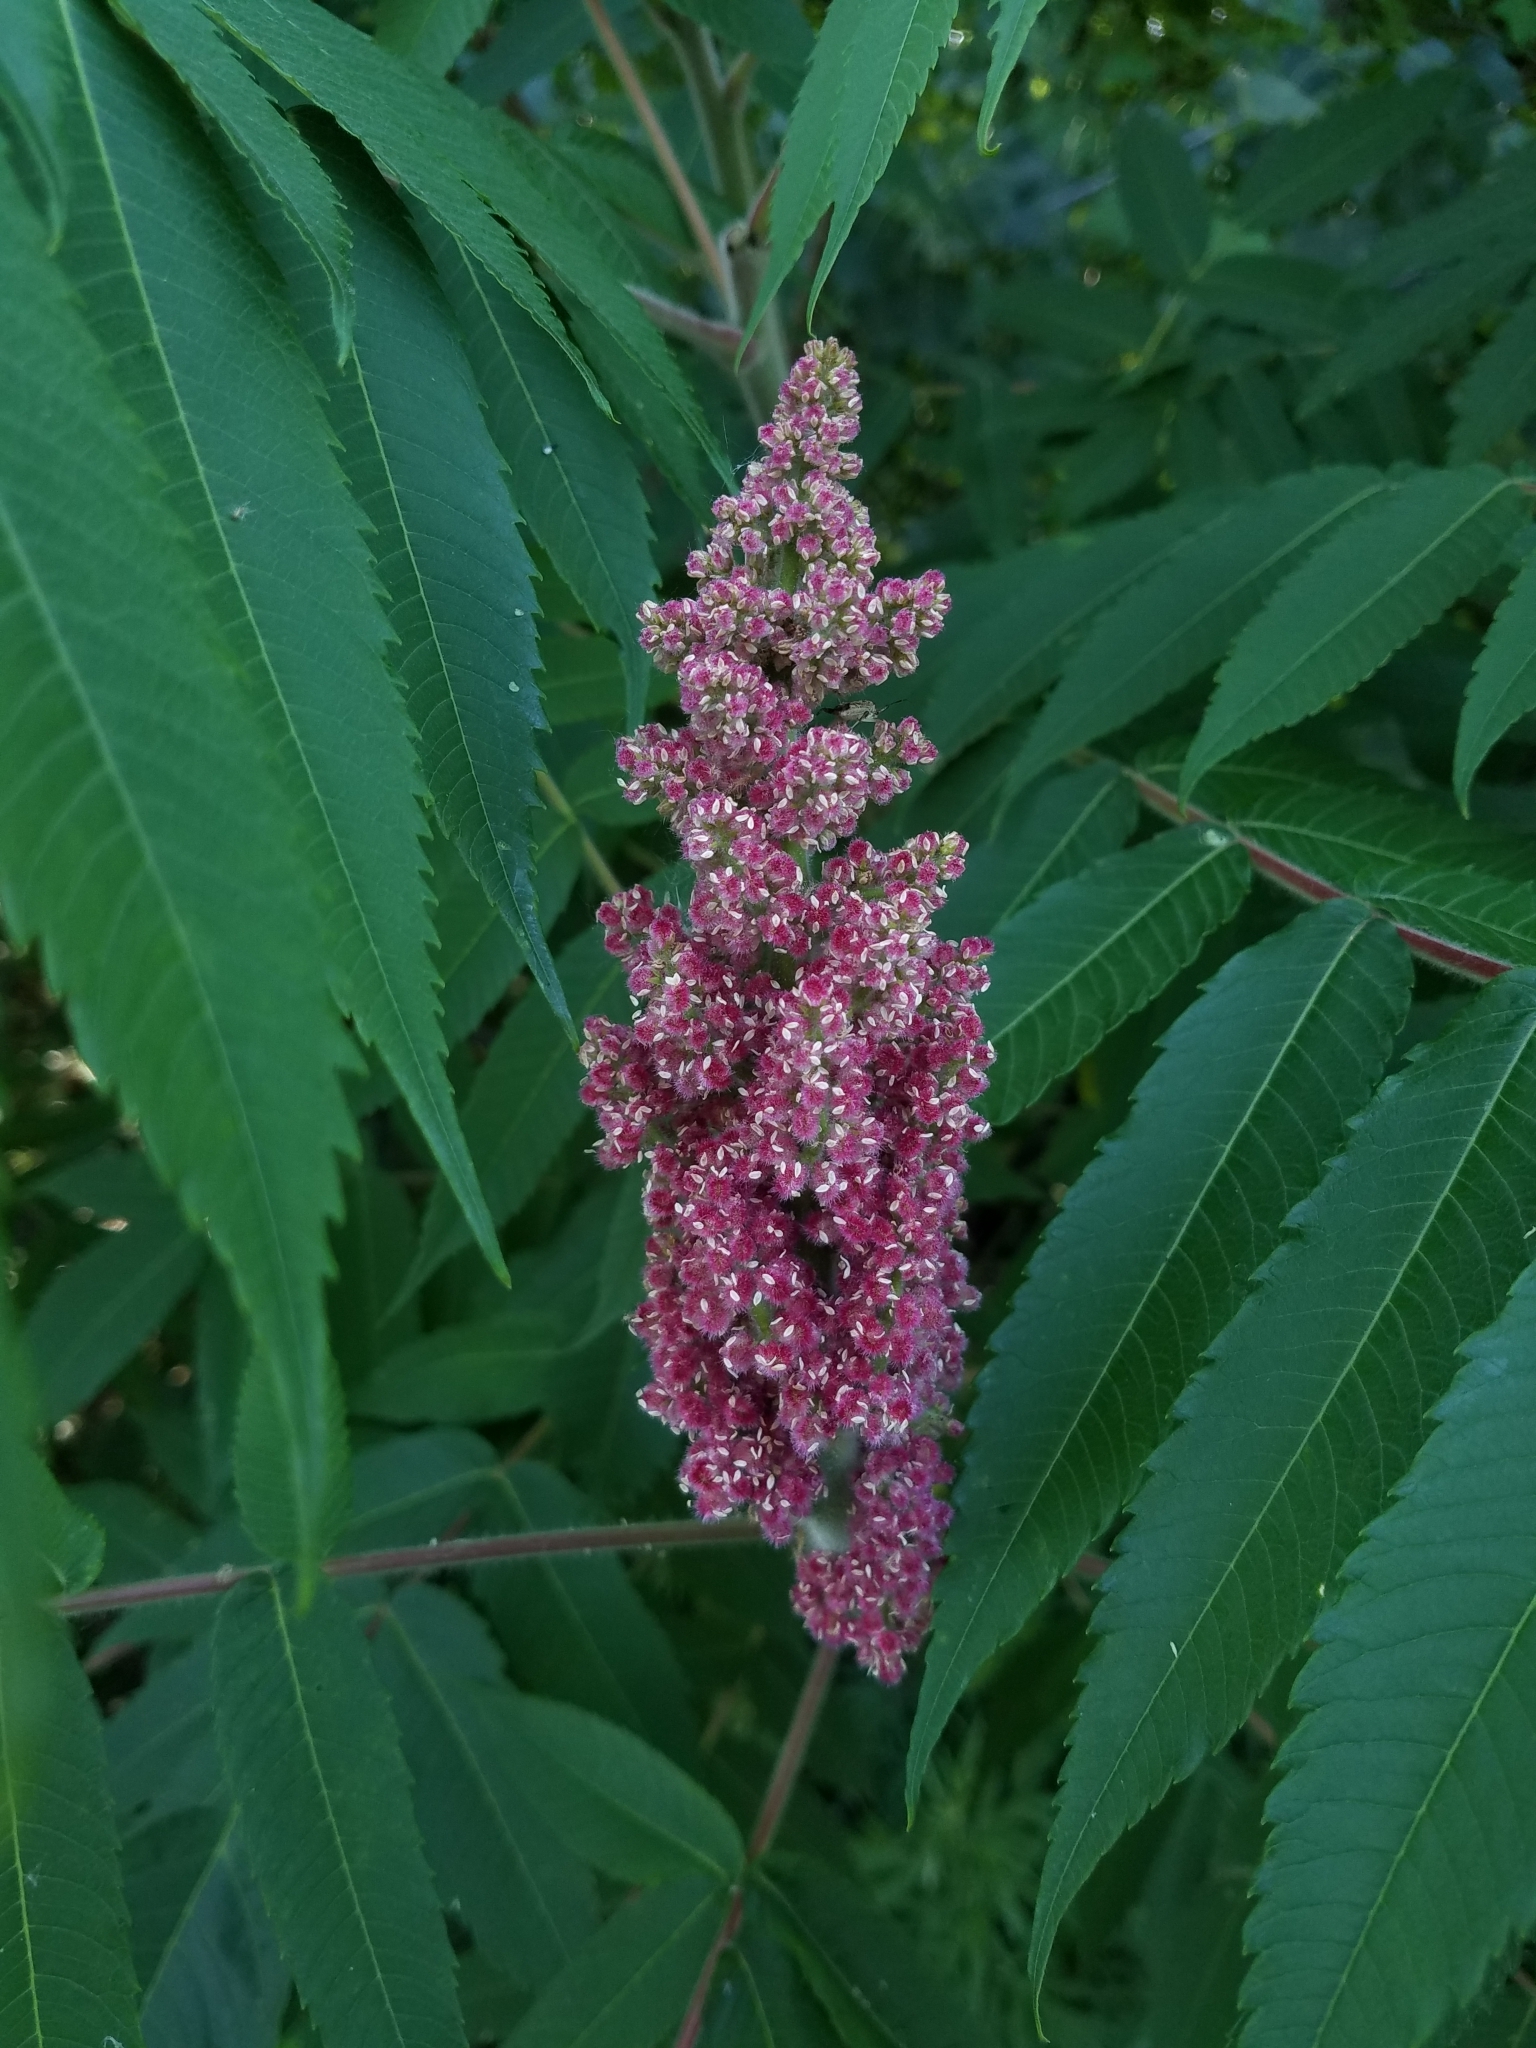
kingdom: Plantae
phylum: Tracheophyta
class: Magnoliopsida
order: Sapindales
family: Anacardiaceae
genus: Rhus
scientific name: Rhus typhina
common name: Staghorn sumac
